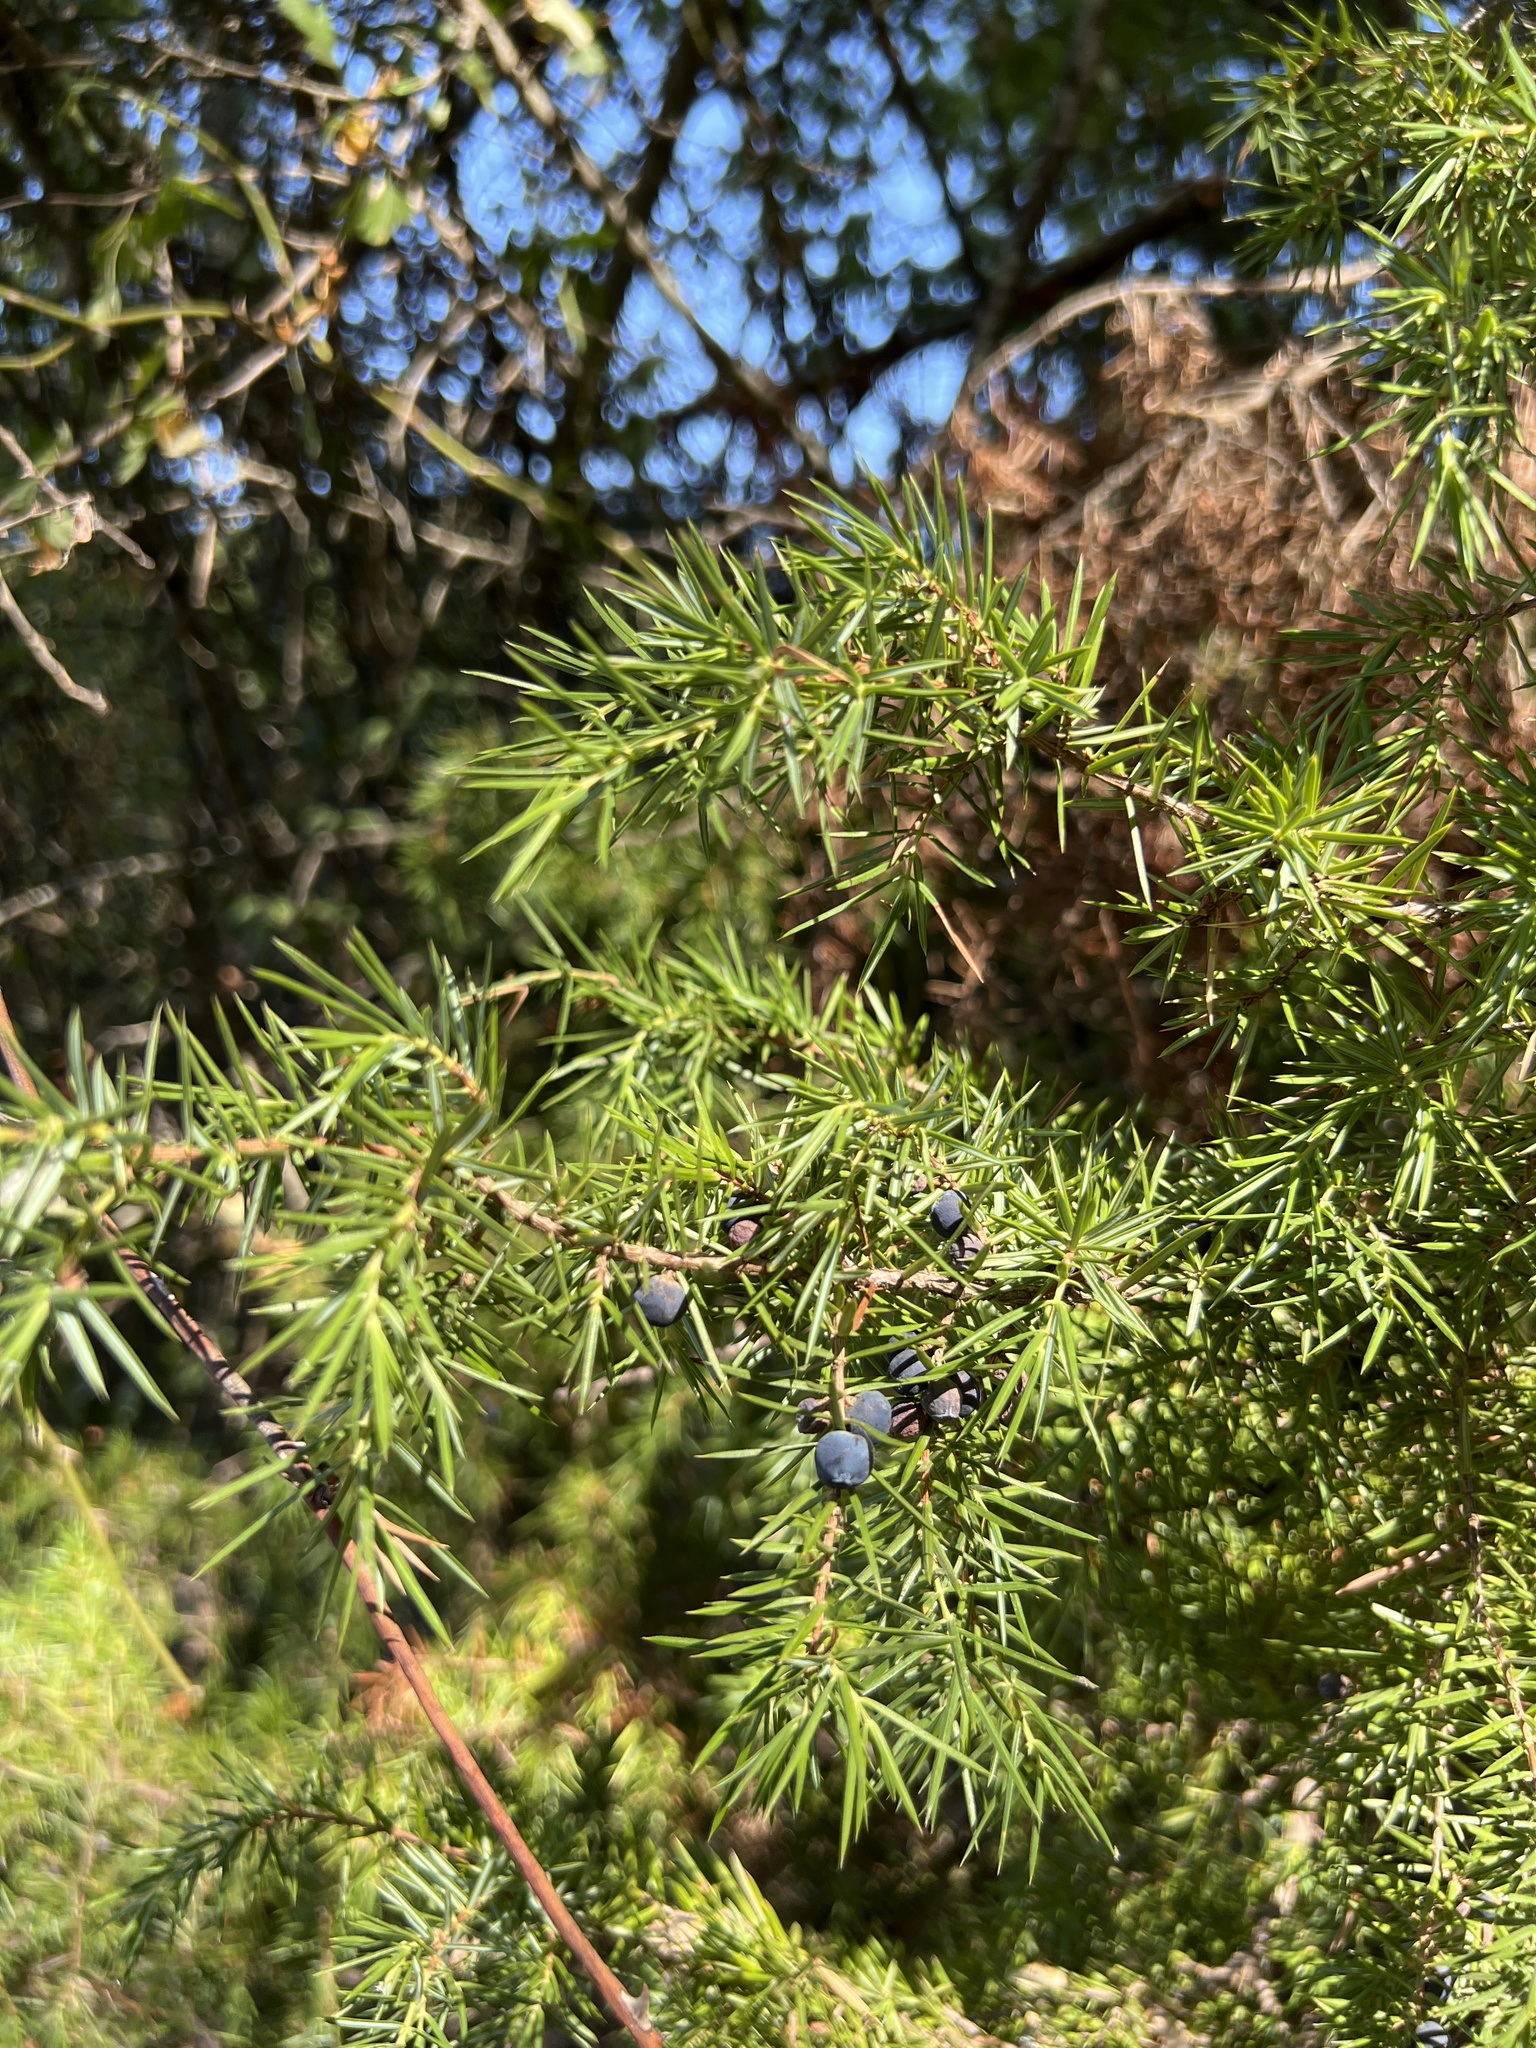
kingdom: Plantae
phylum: Tracheophyta
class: Pinopsida
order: Pinales
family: Cupressaceae
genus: Juniperus
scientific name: Juniperus communis
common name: Common juniper
